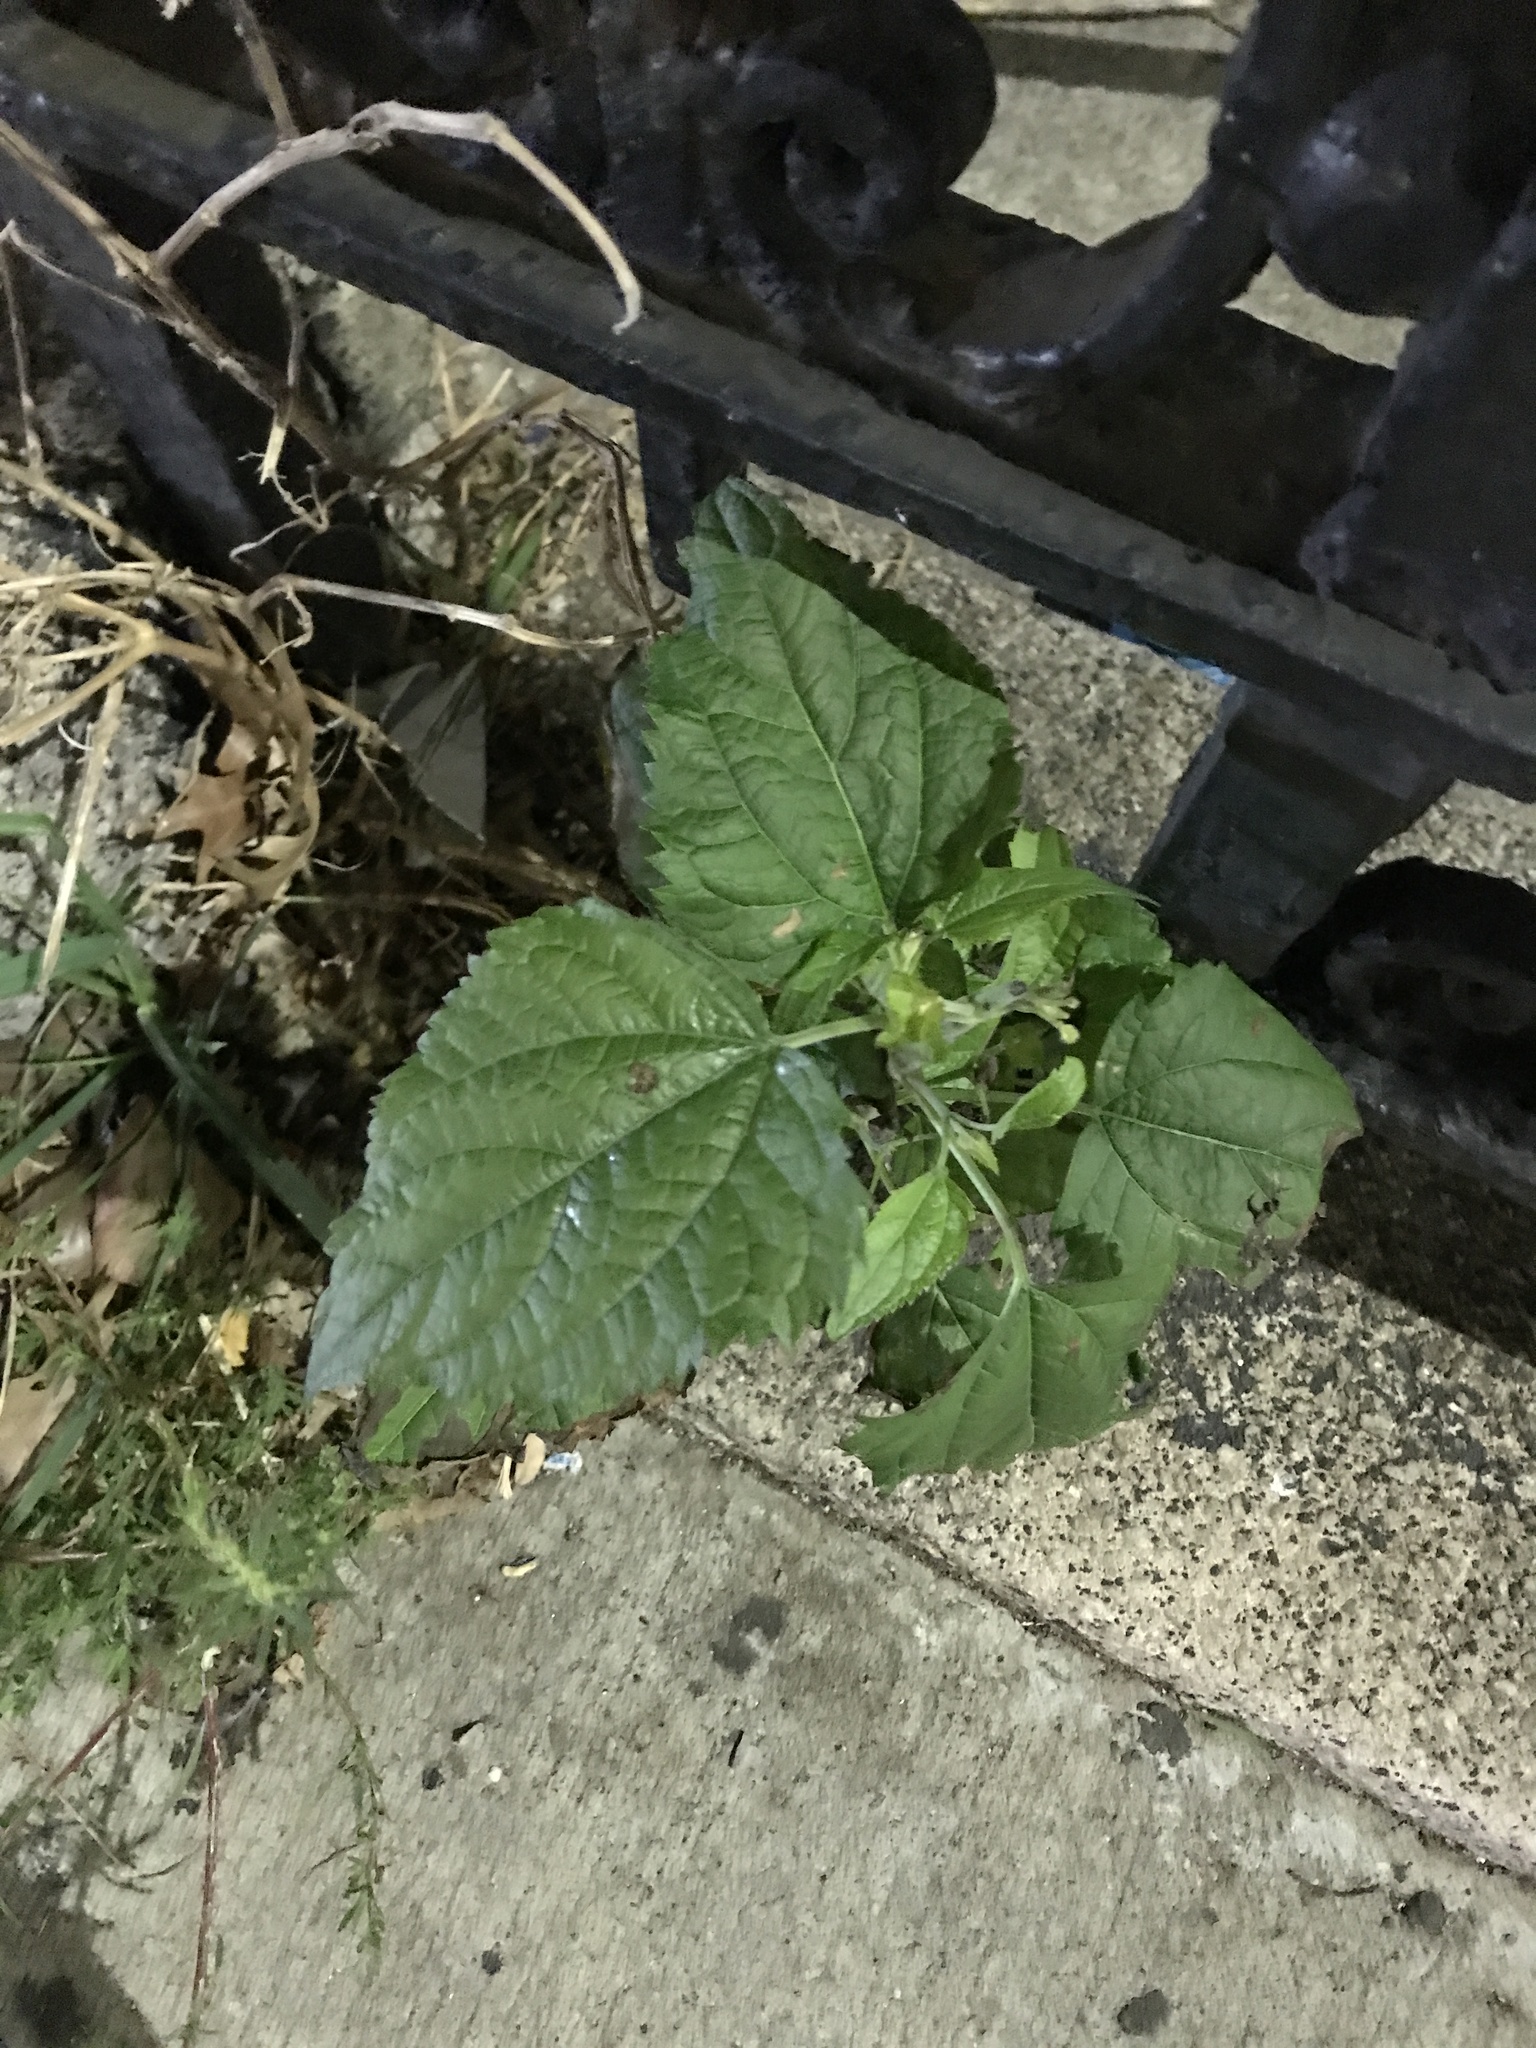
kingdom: Plantae
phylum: Tracheophyta
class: Magnoliopsida
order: Asterales
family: Asteraceae
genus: Ageratina
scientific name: Ageratina altissima
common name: White snakeroot
